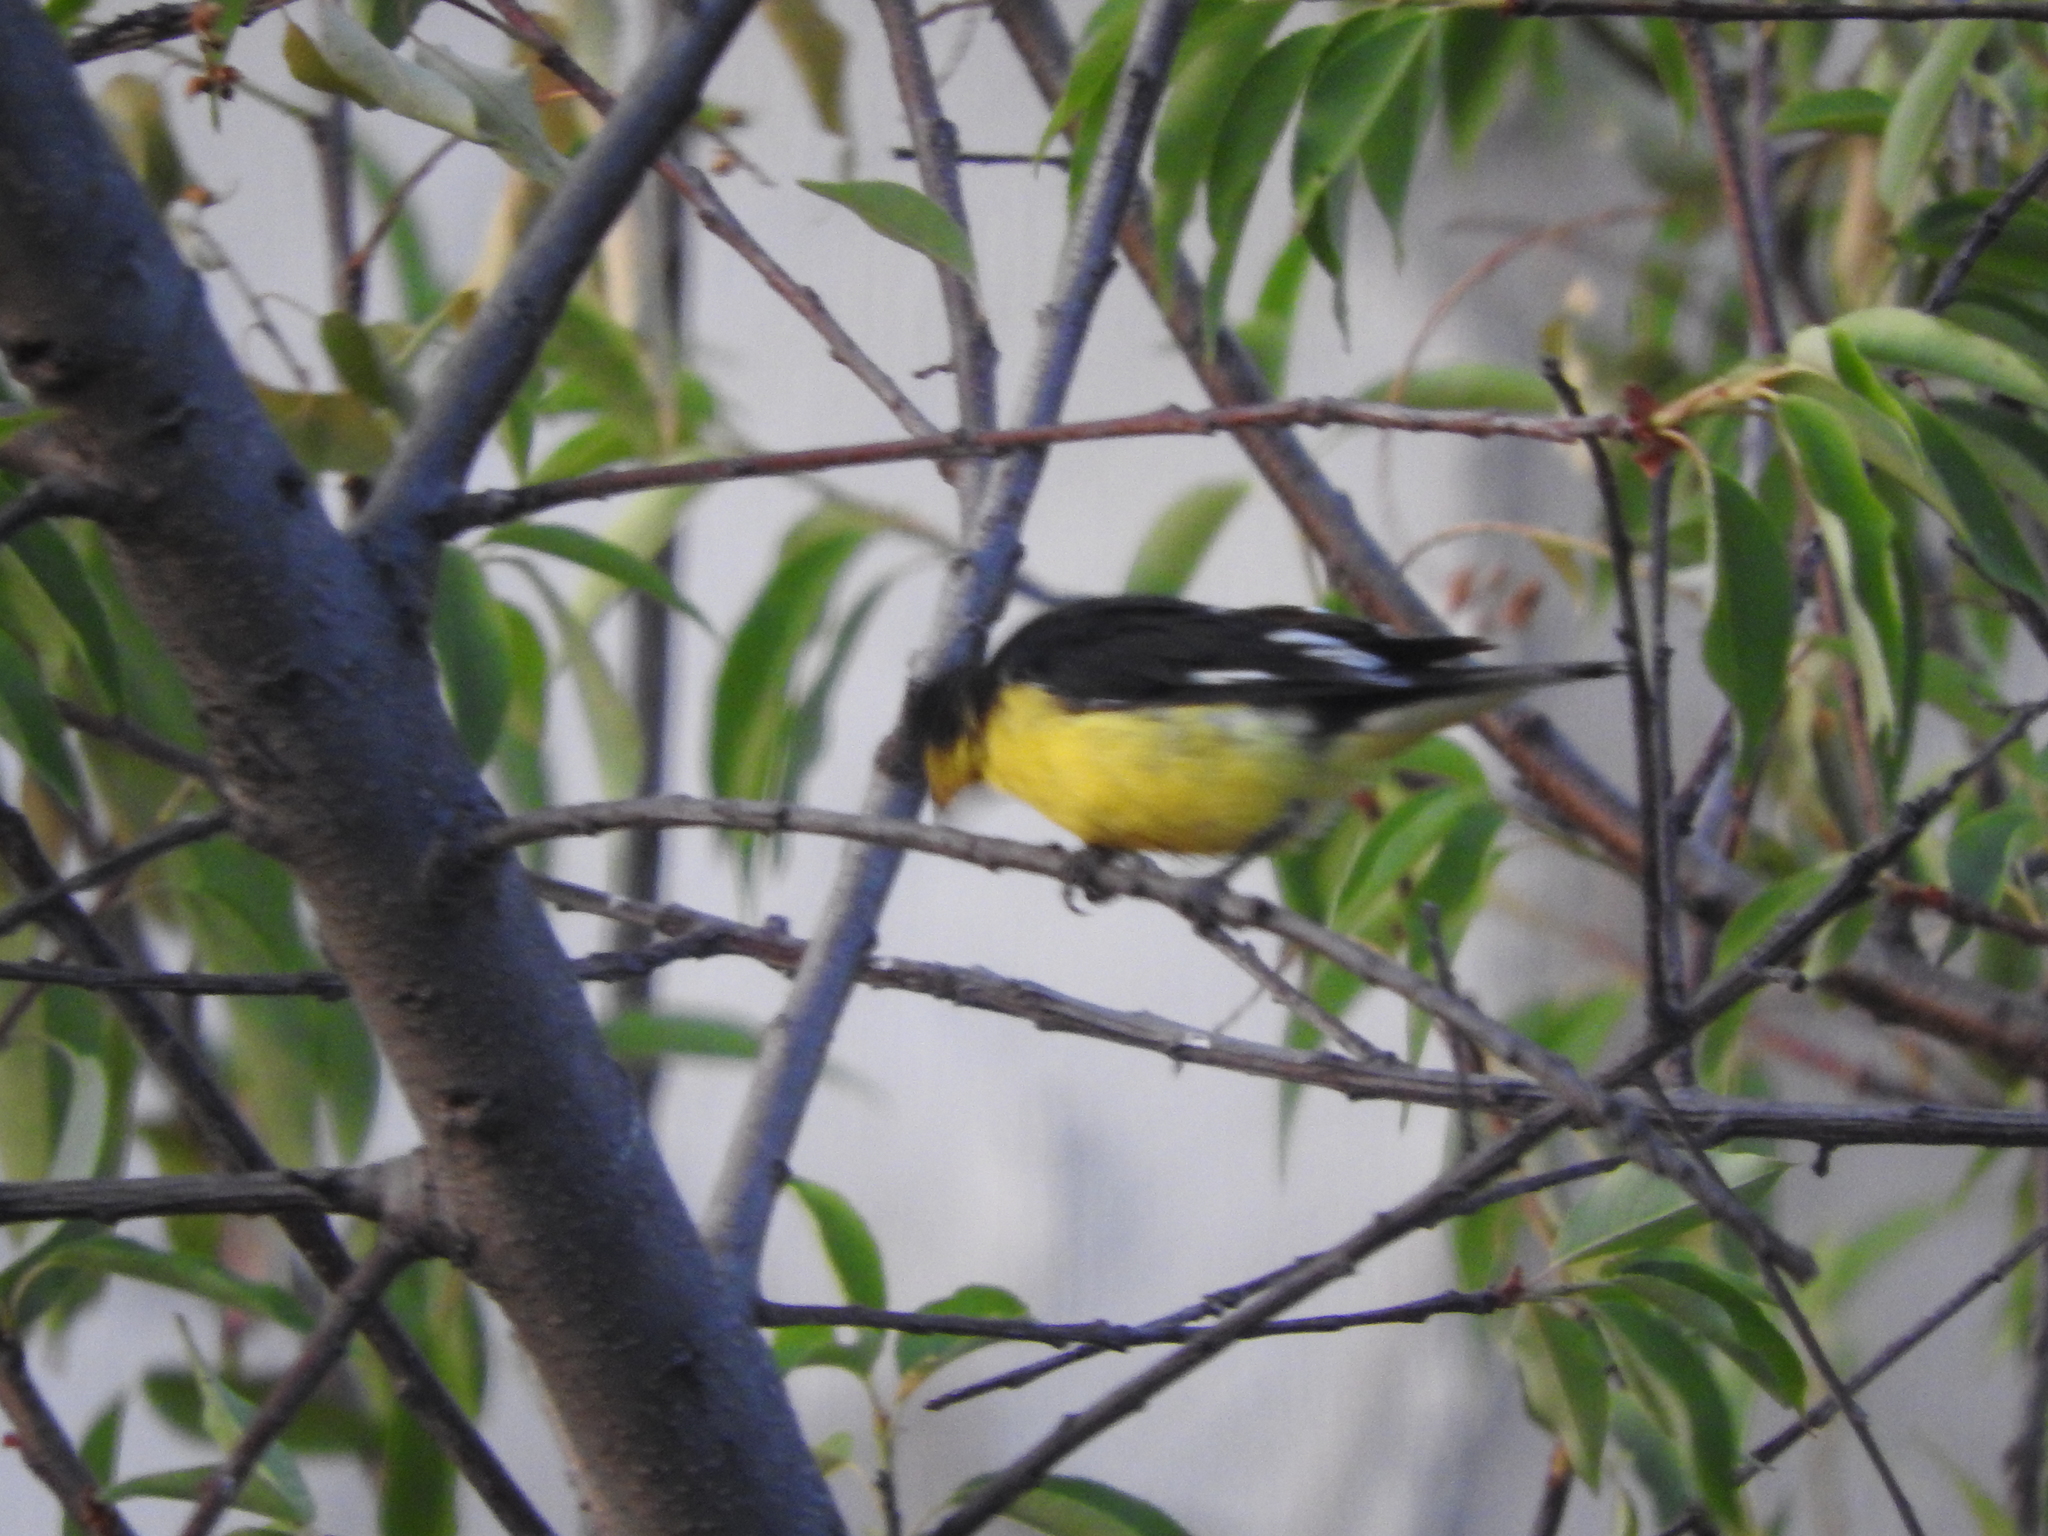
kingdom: Animalia
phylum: Chordata
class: Aves
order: Passeriformes
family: Fringillidae
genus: Spinus
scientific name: Spinus psaltria
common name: Lesser goldfinch
